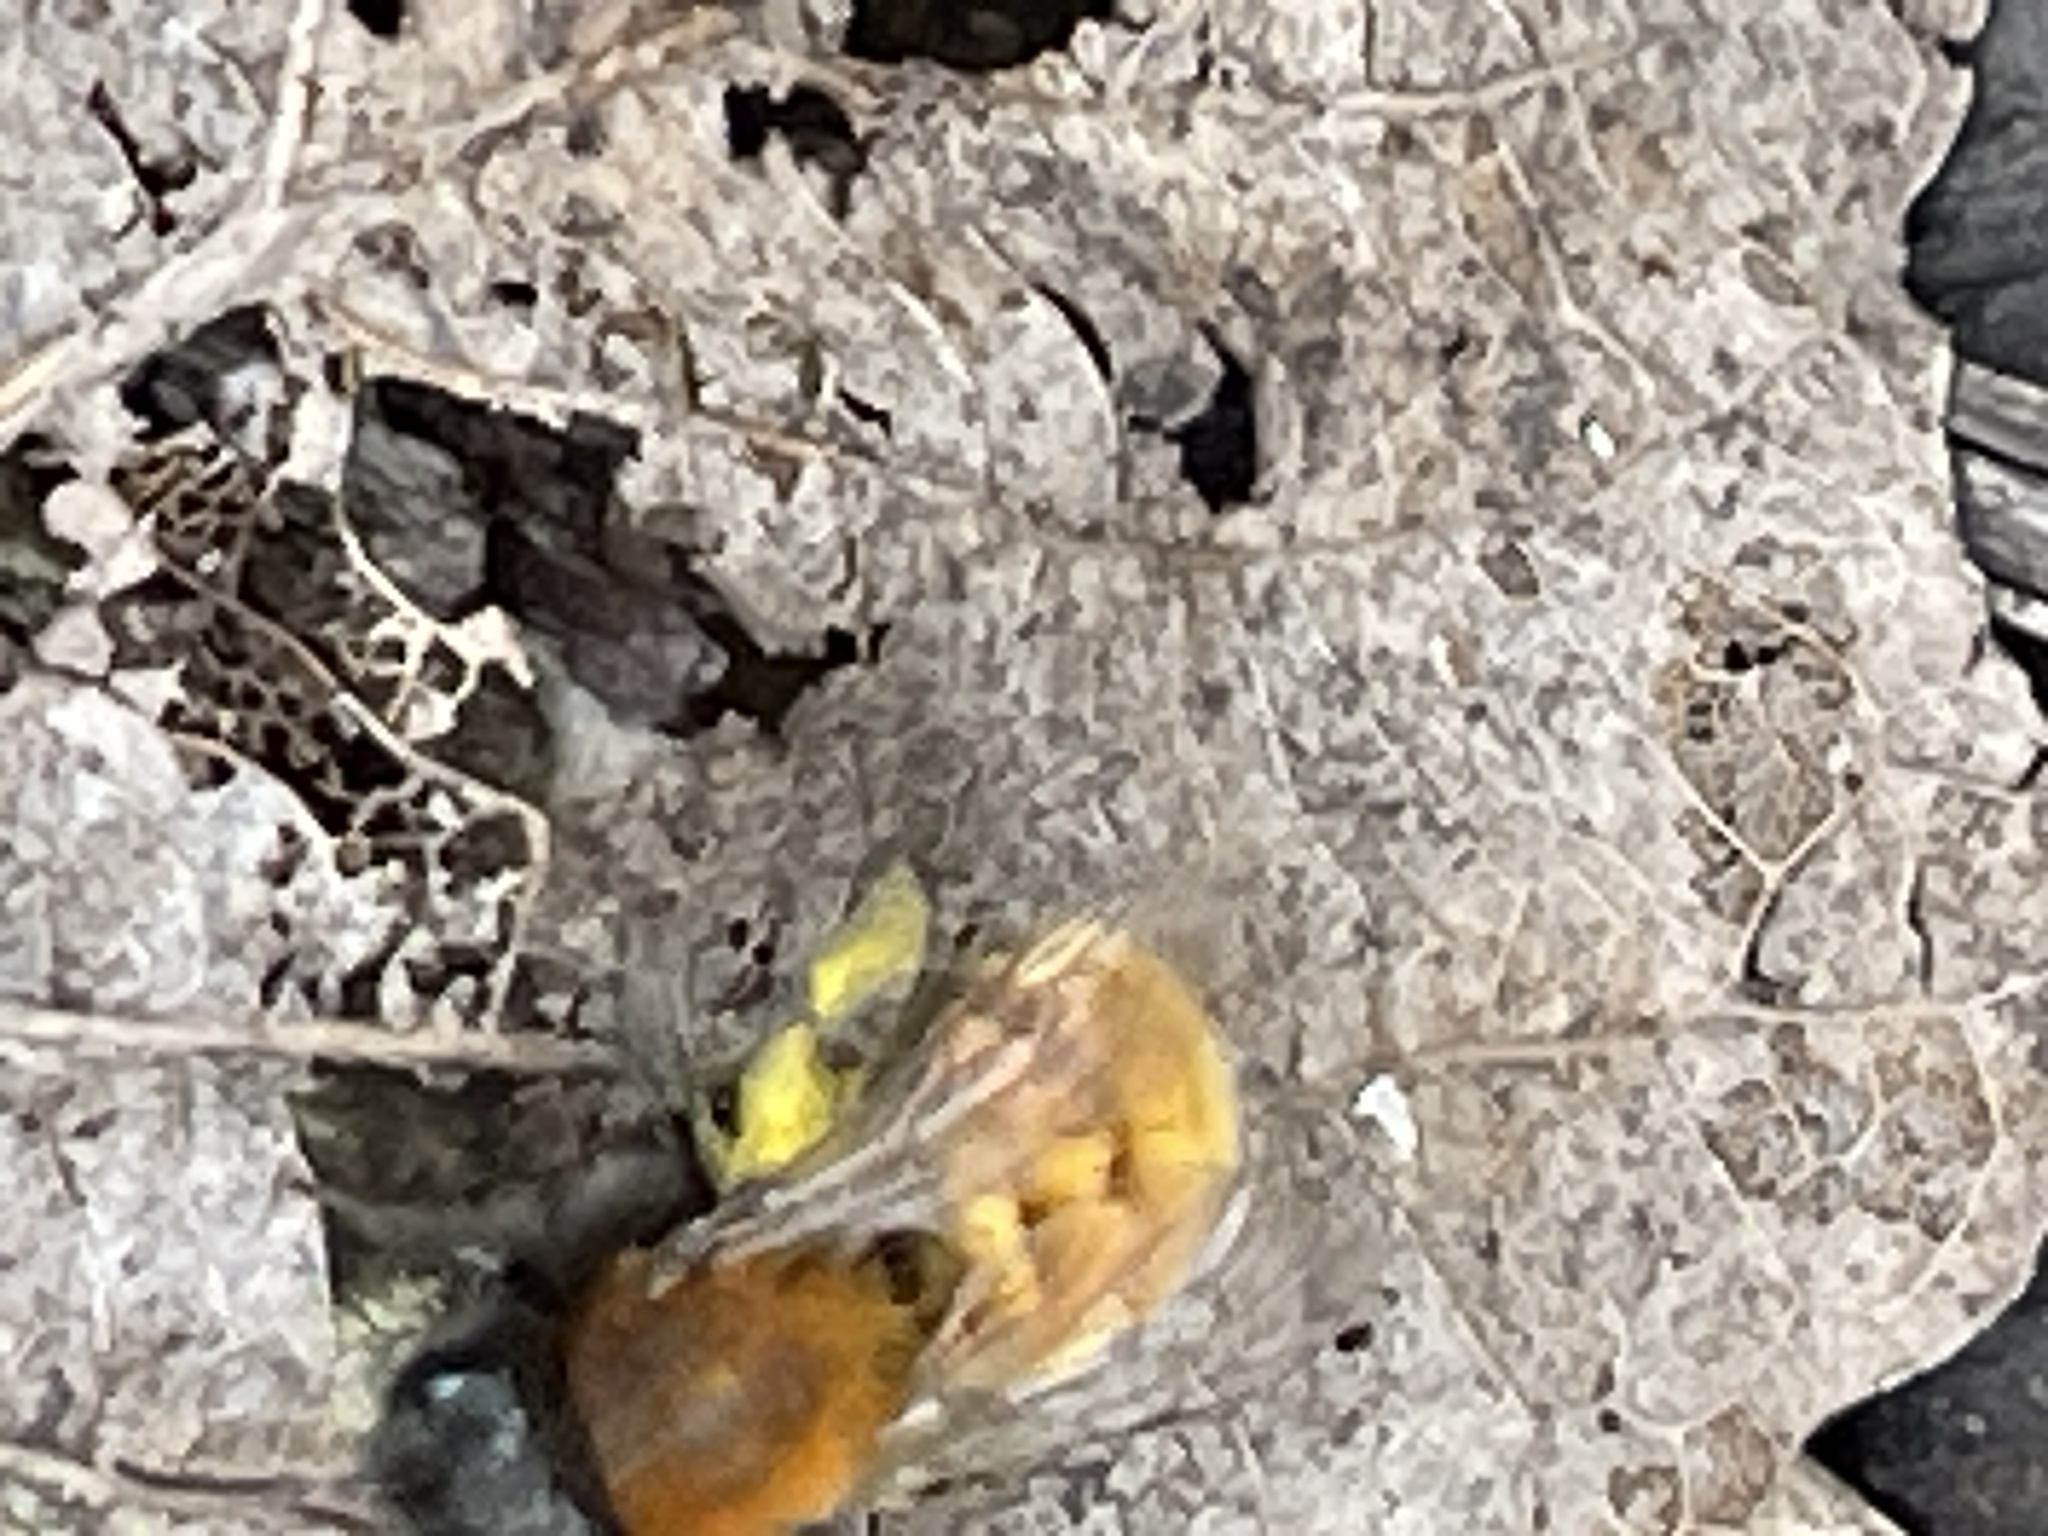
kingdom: Animalia
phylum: Arthropoda
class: Insecta
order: Hymenoptera
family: Andrenidae
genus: Andrena
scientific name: Andrena fulva
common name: Tawny mining bee
